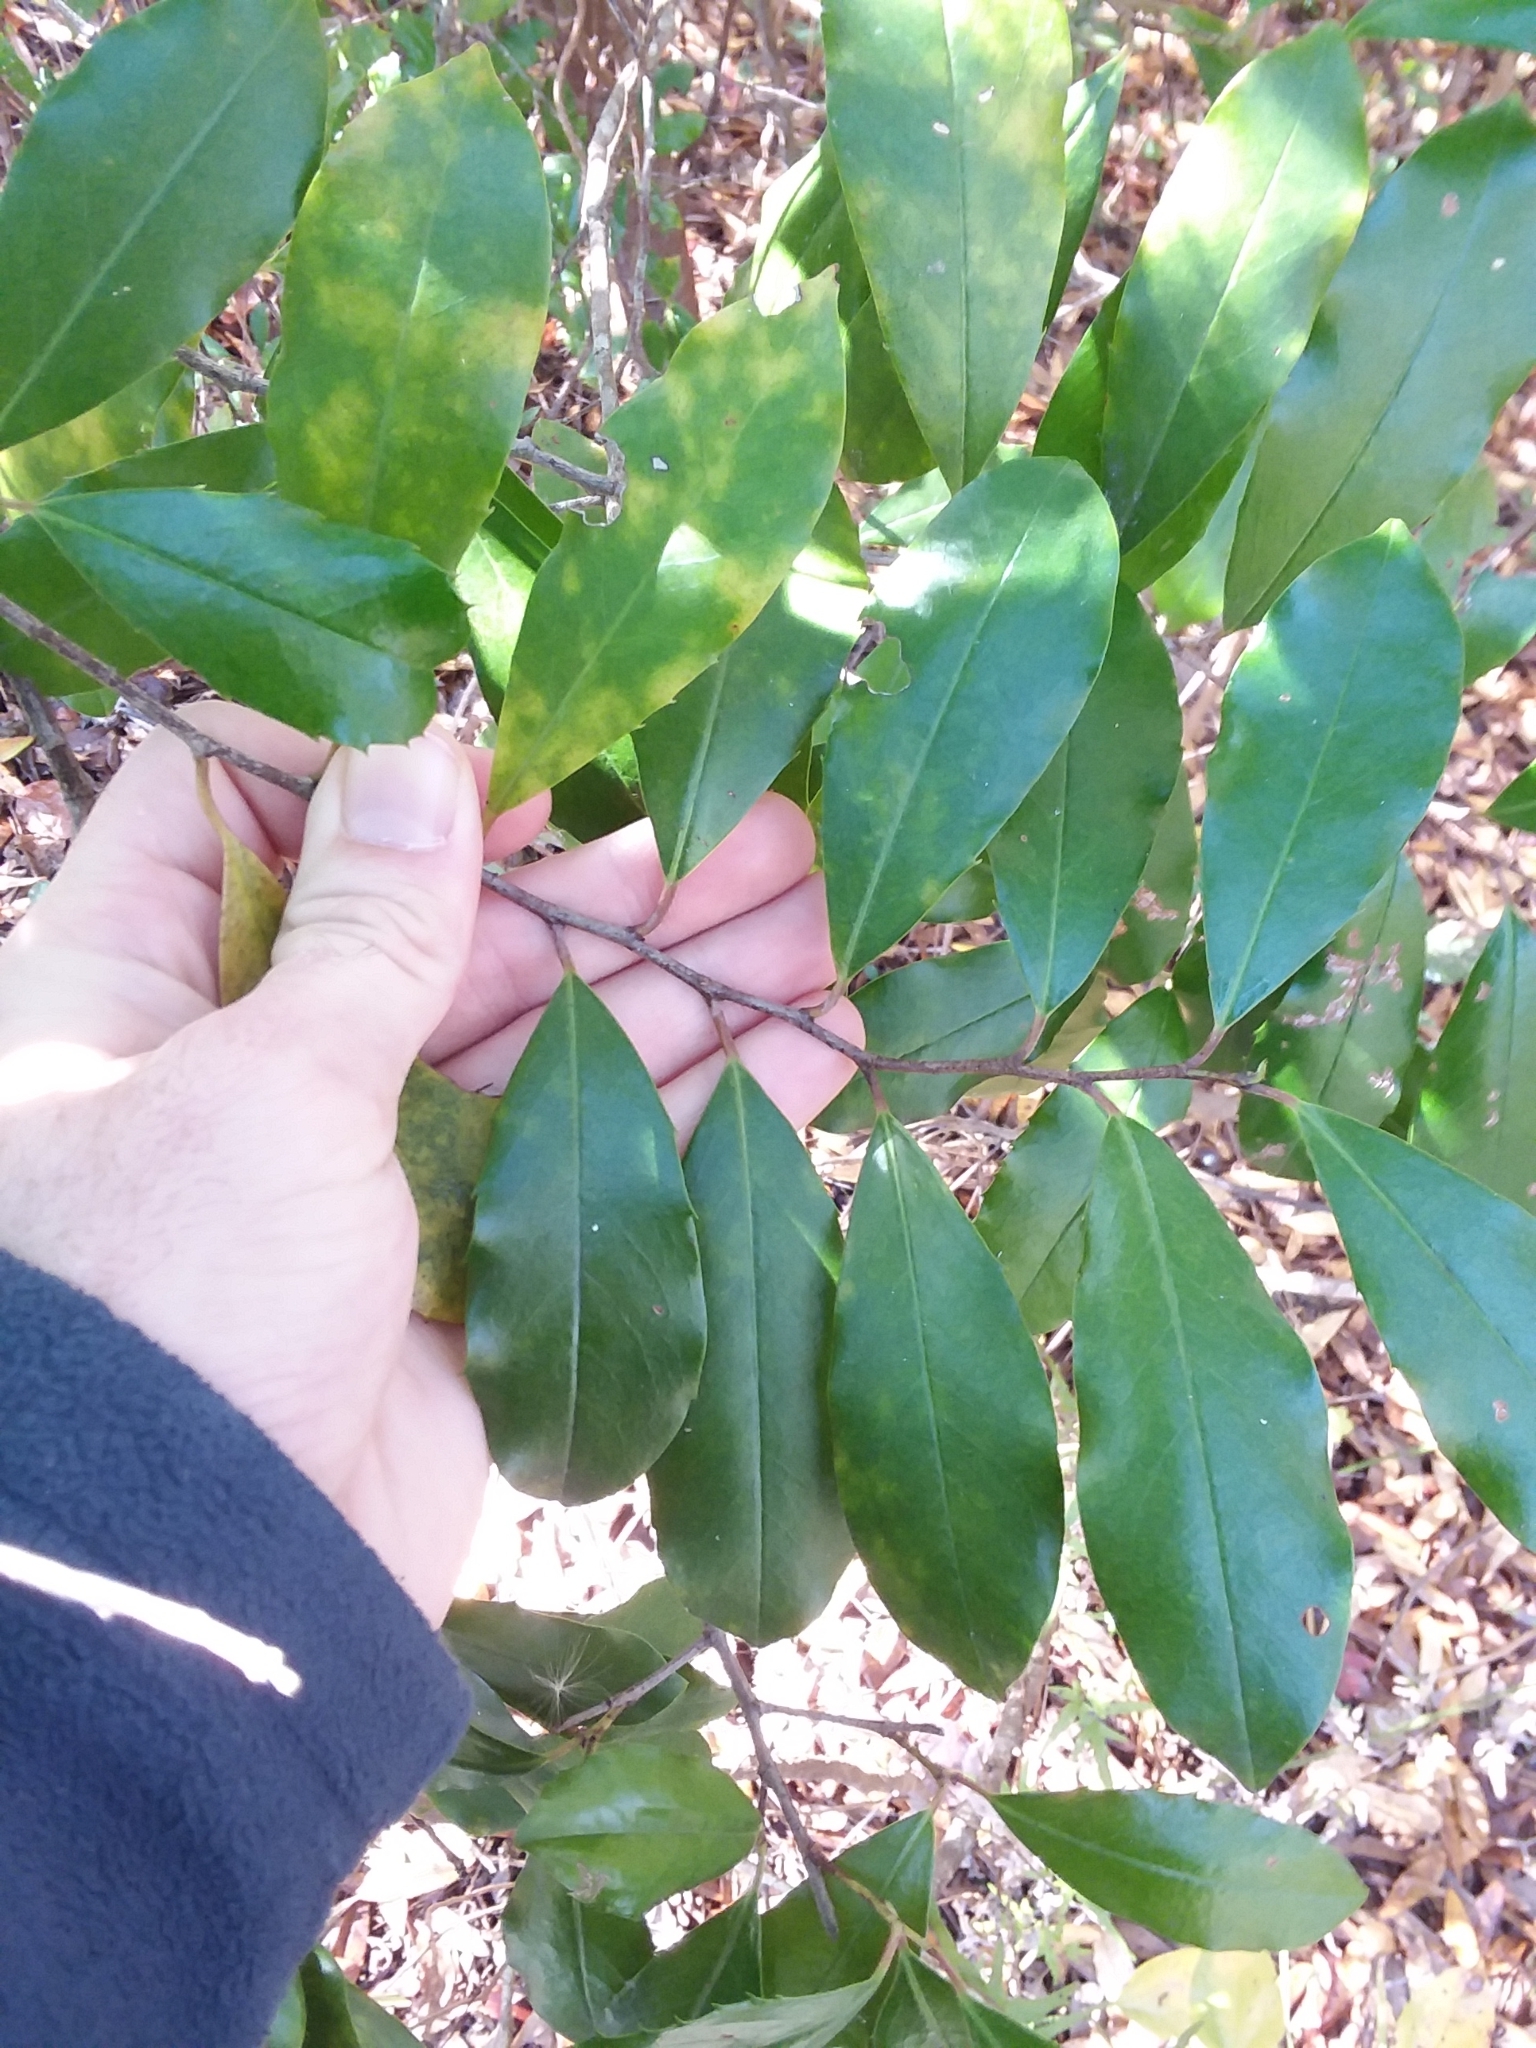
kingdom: Plantae
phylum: Tracheophyta
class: Magnoliopsida
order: Rosales
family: Rosaceae
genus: Prunus
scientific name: Prunus caroliniana
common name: Carolina laurel cherry
